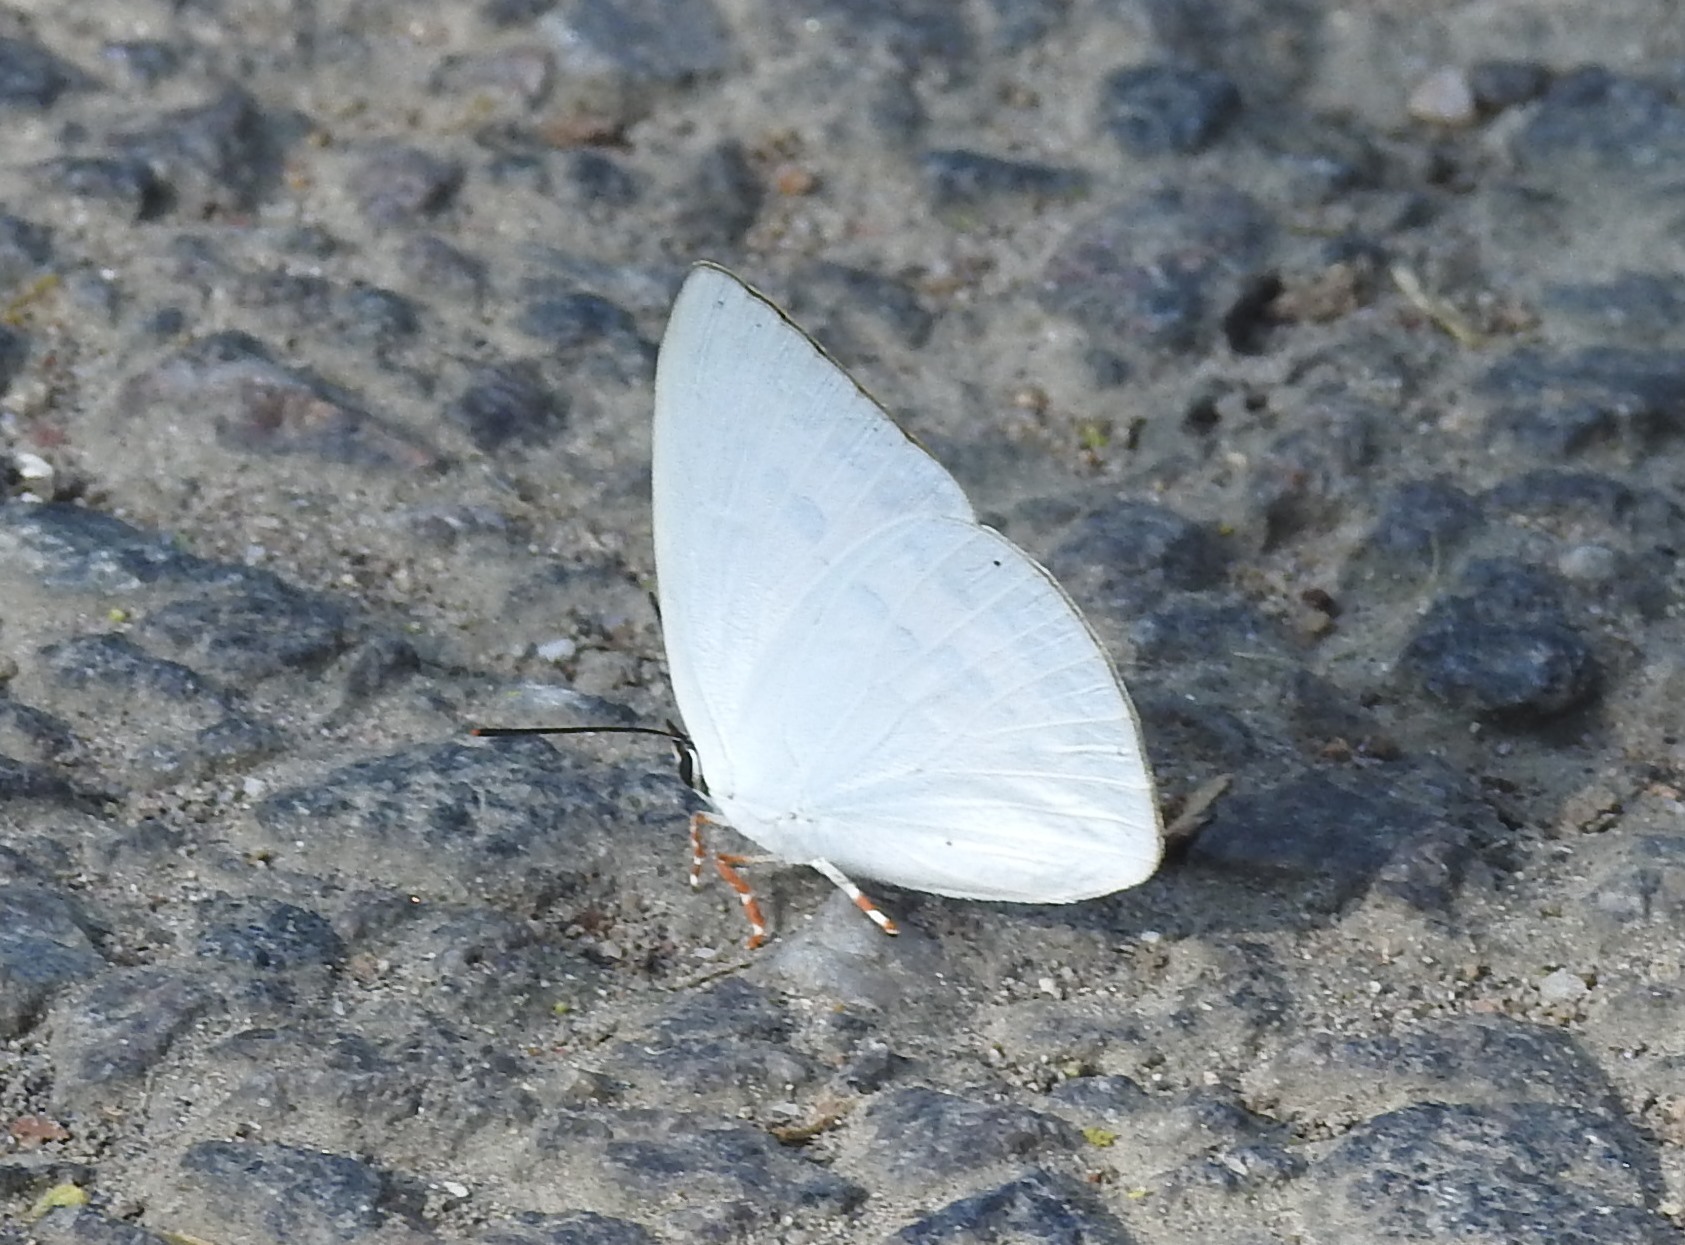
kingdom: Animalia
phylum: Arthropoda
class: Insecta
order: Lepidoptera
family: Lycaenidae
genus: Curetis
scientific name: Curetis thetis
